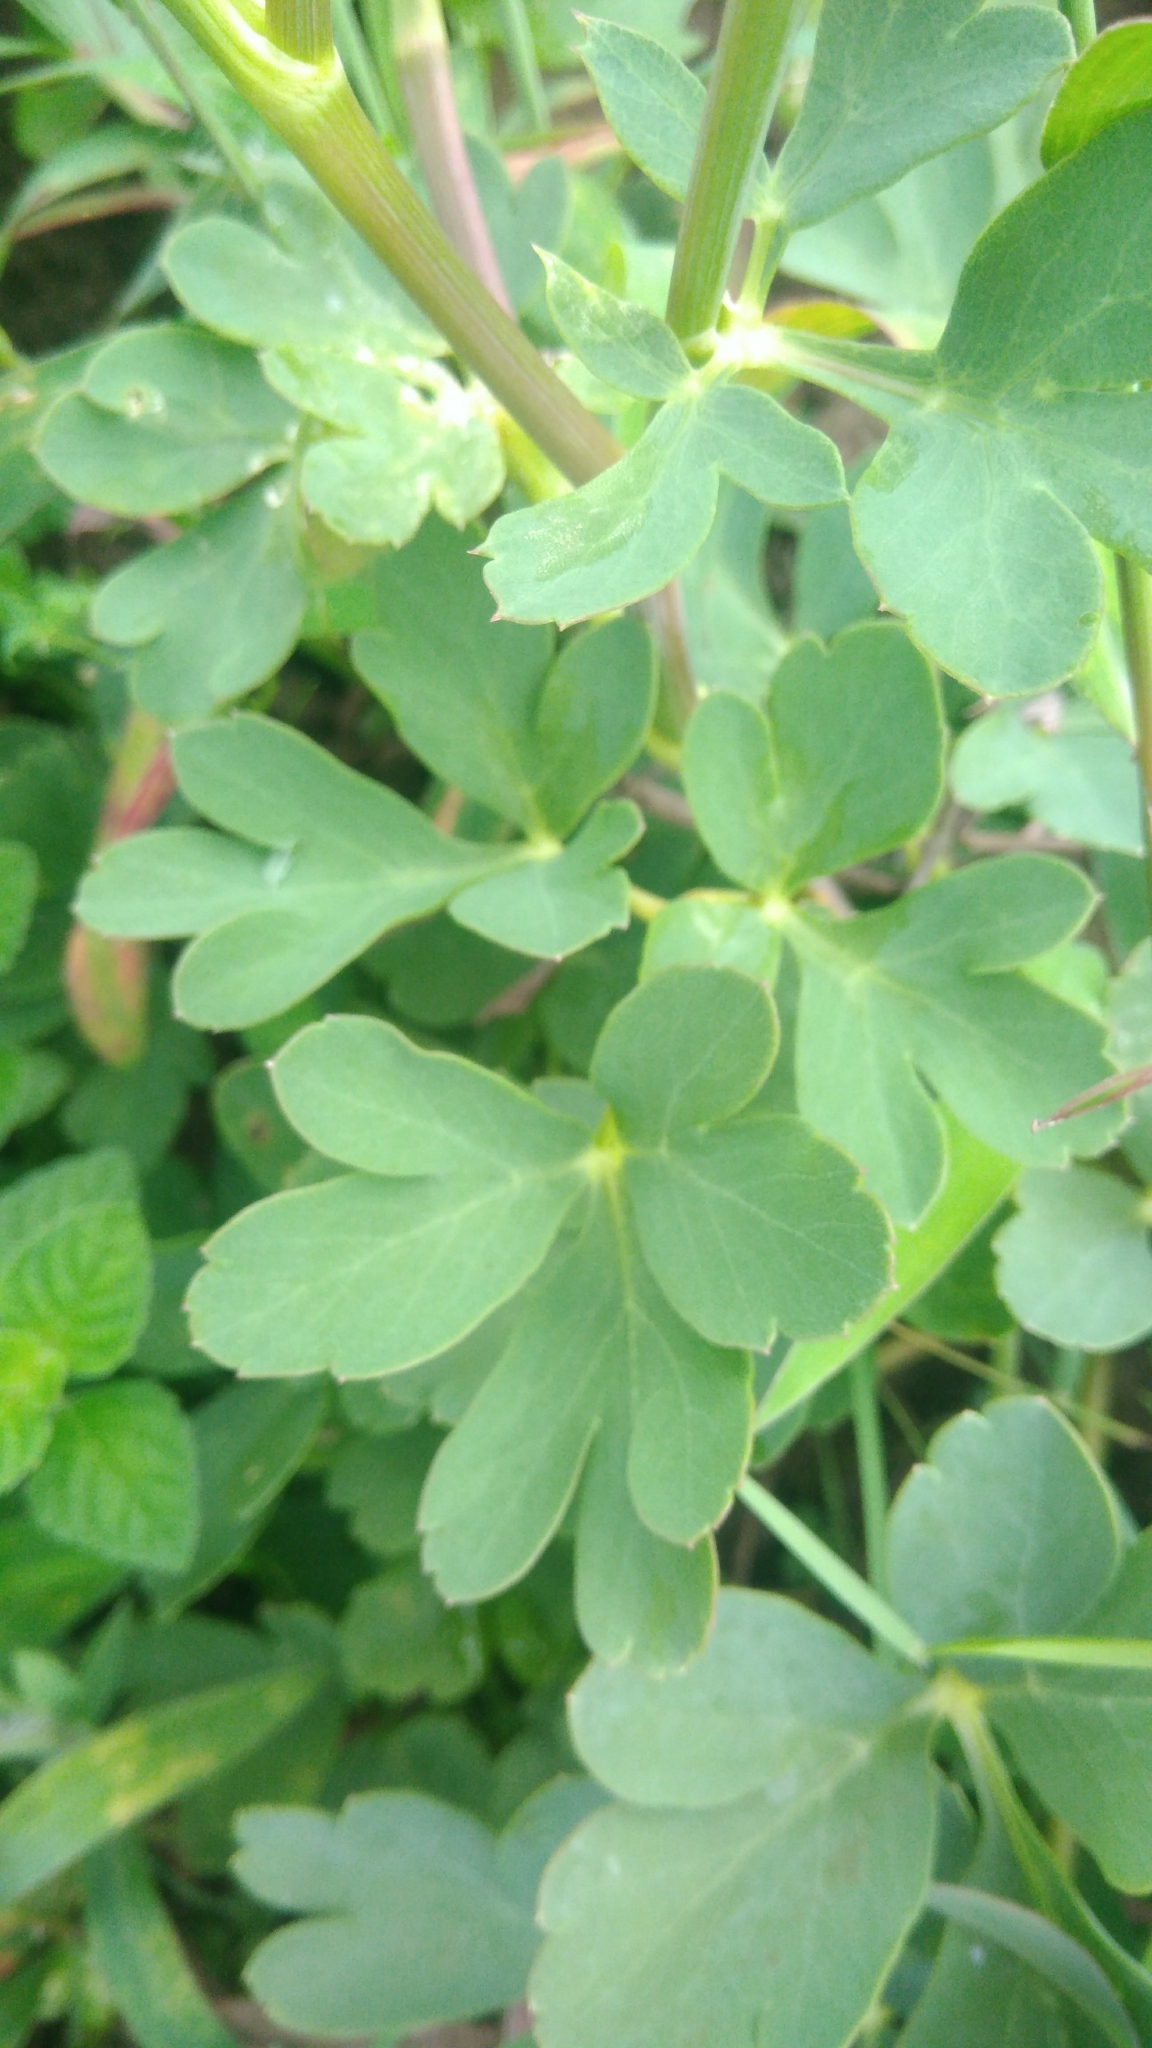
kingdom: Plantae
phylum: Tracheophyta
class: Magnoliopsida
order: Apiales
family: Apiaceae
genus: Peucedanum
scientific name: Peucedanum japonicum
